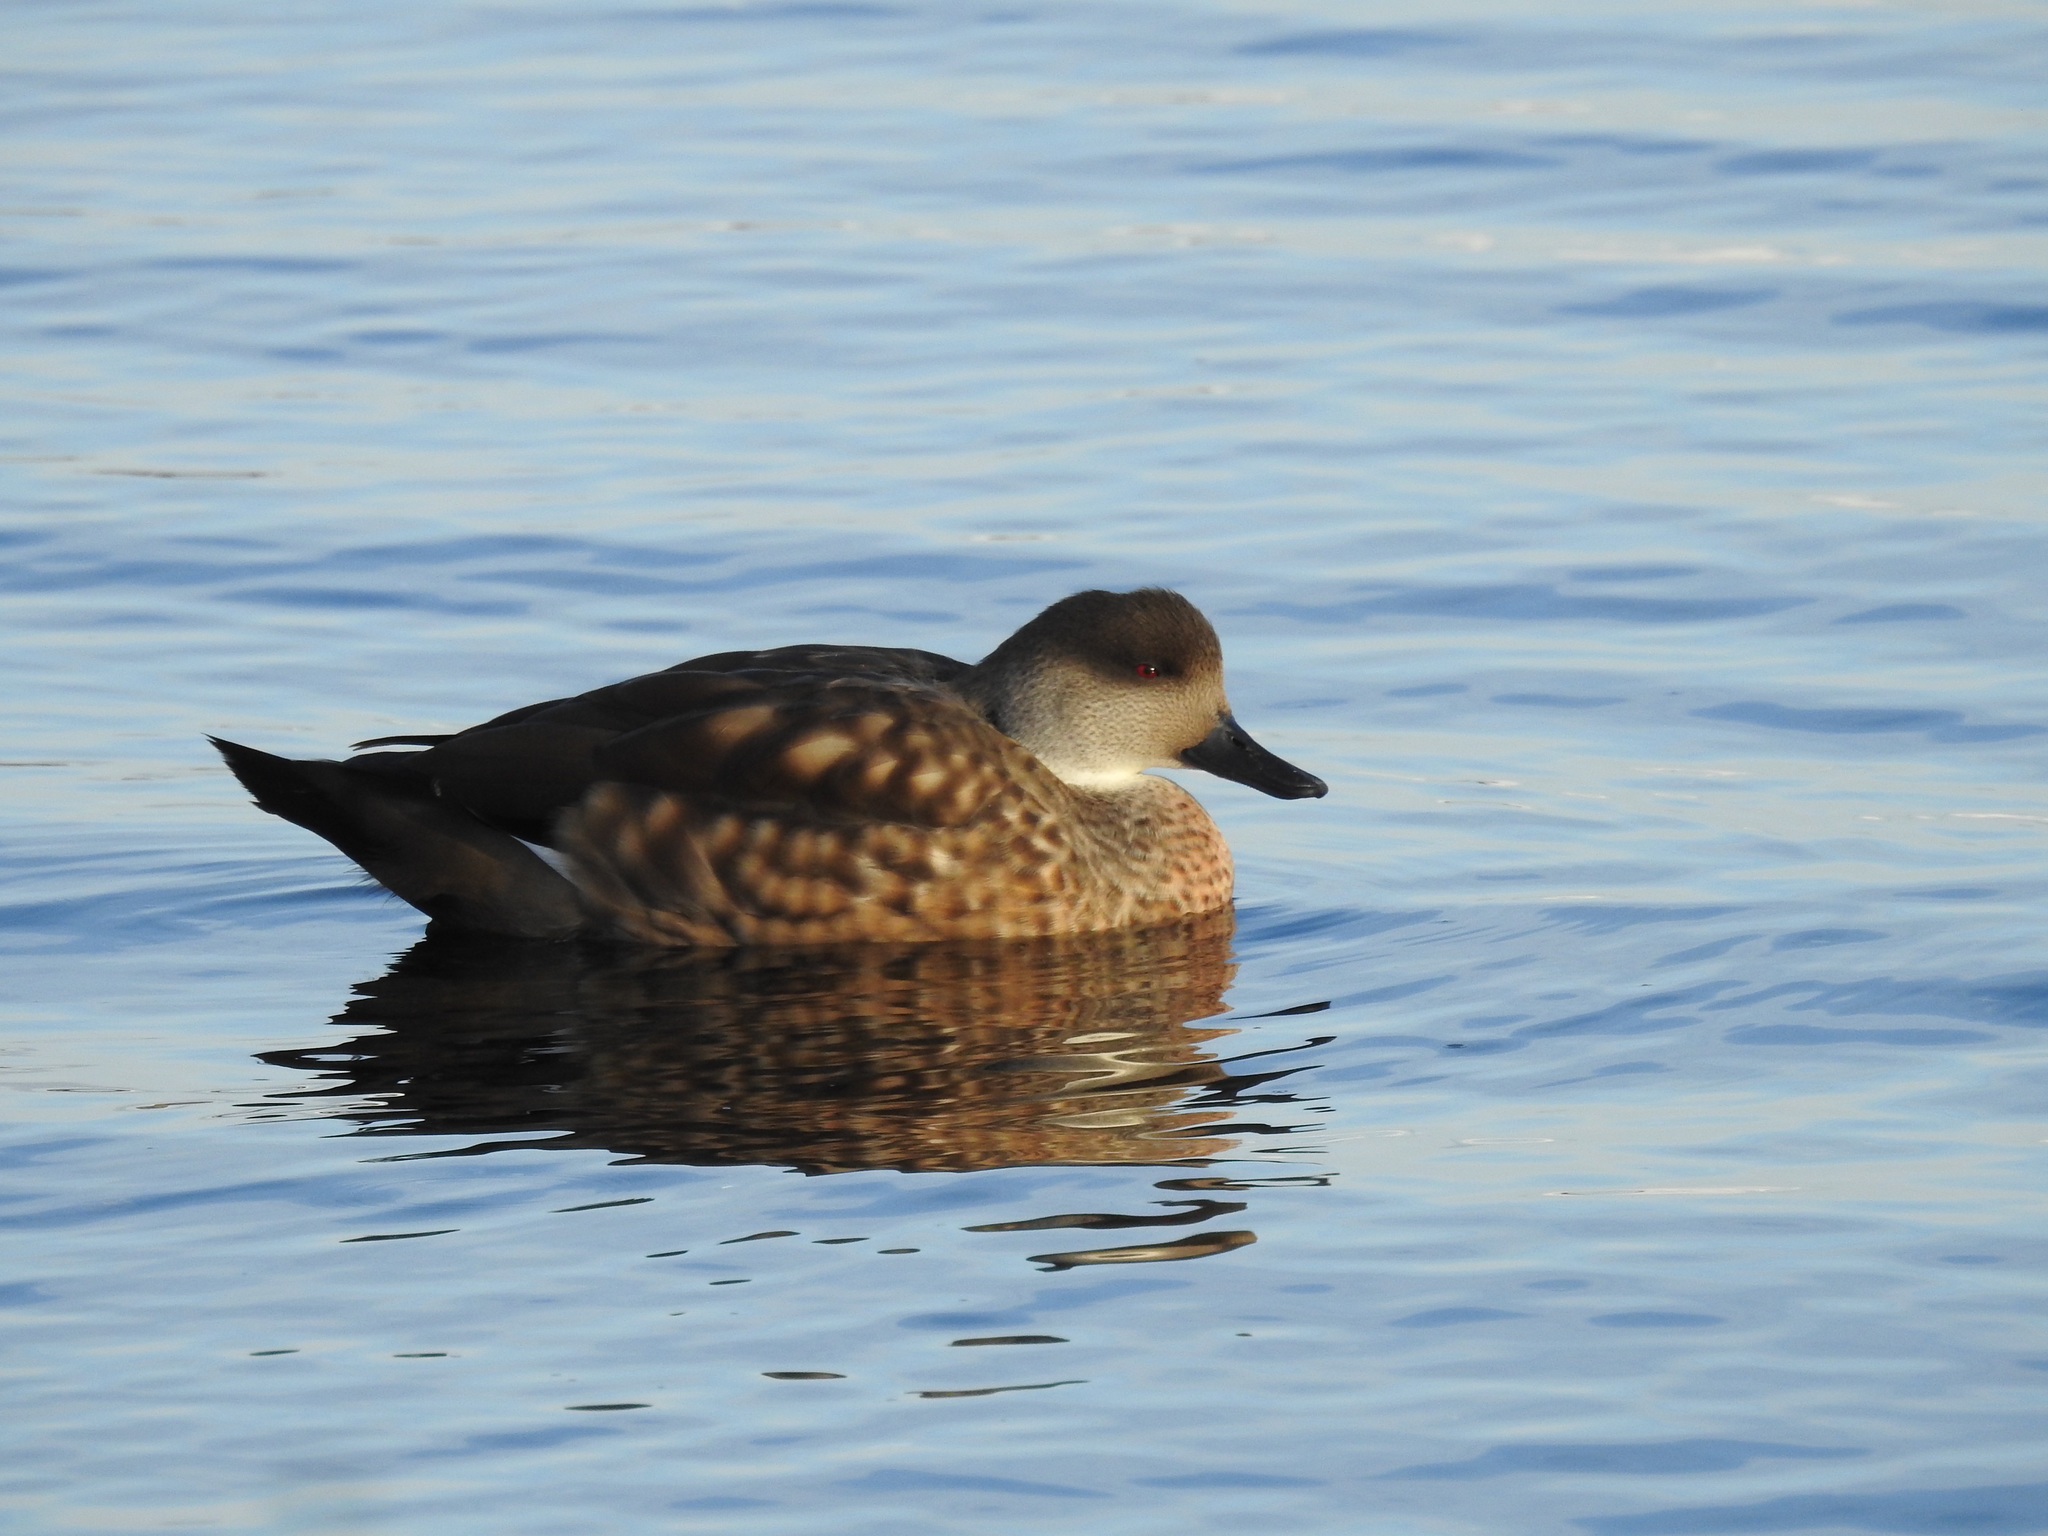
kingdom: Animalia
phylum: Chordata
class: Aves
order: Anseriformes
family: Anatidae
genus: Lophonetta
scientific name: Lophonetta specularioides
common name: Crested duck
